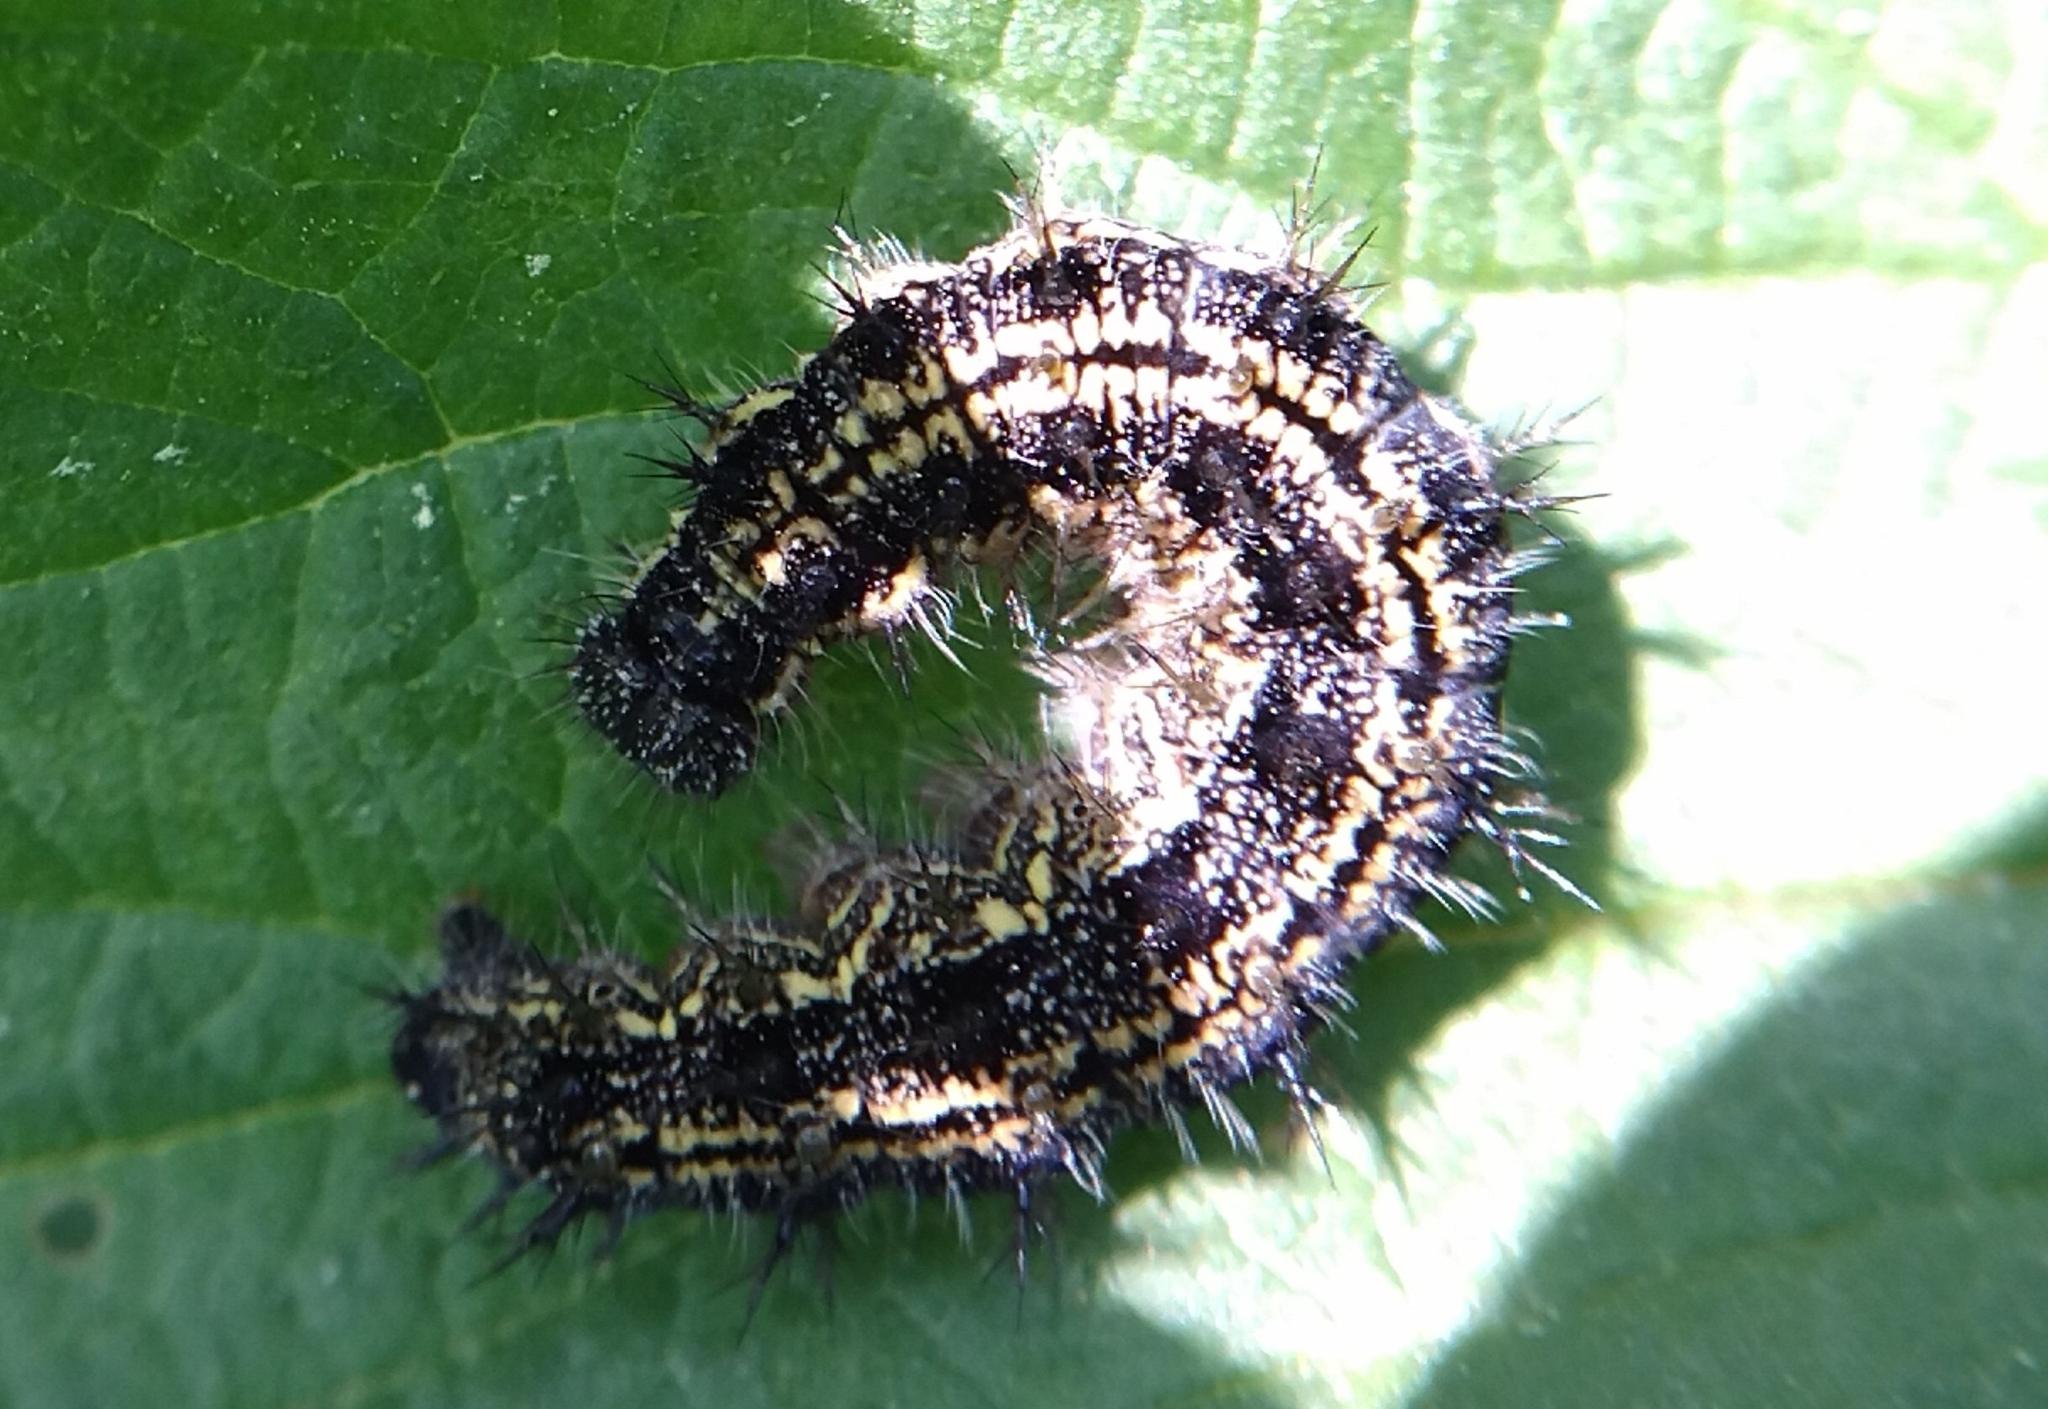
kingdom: Animalia
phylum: Arthropoda
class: Insecta
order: Lepidoptera
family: Nymphalidae
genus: Aglais
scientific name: Aglais urticae
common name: Small tortoiseshell
